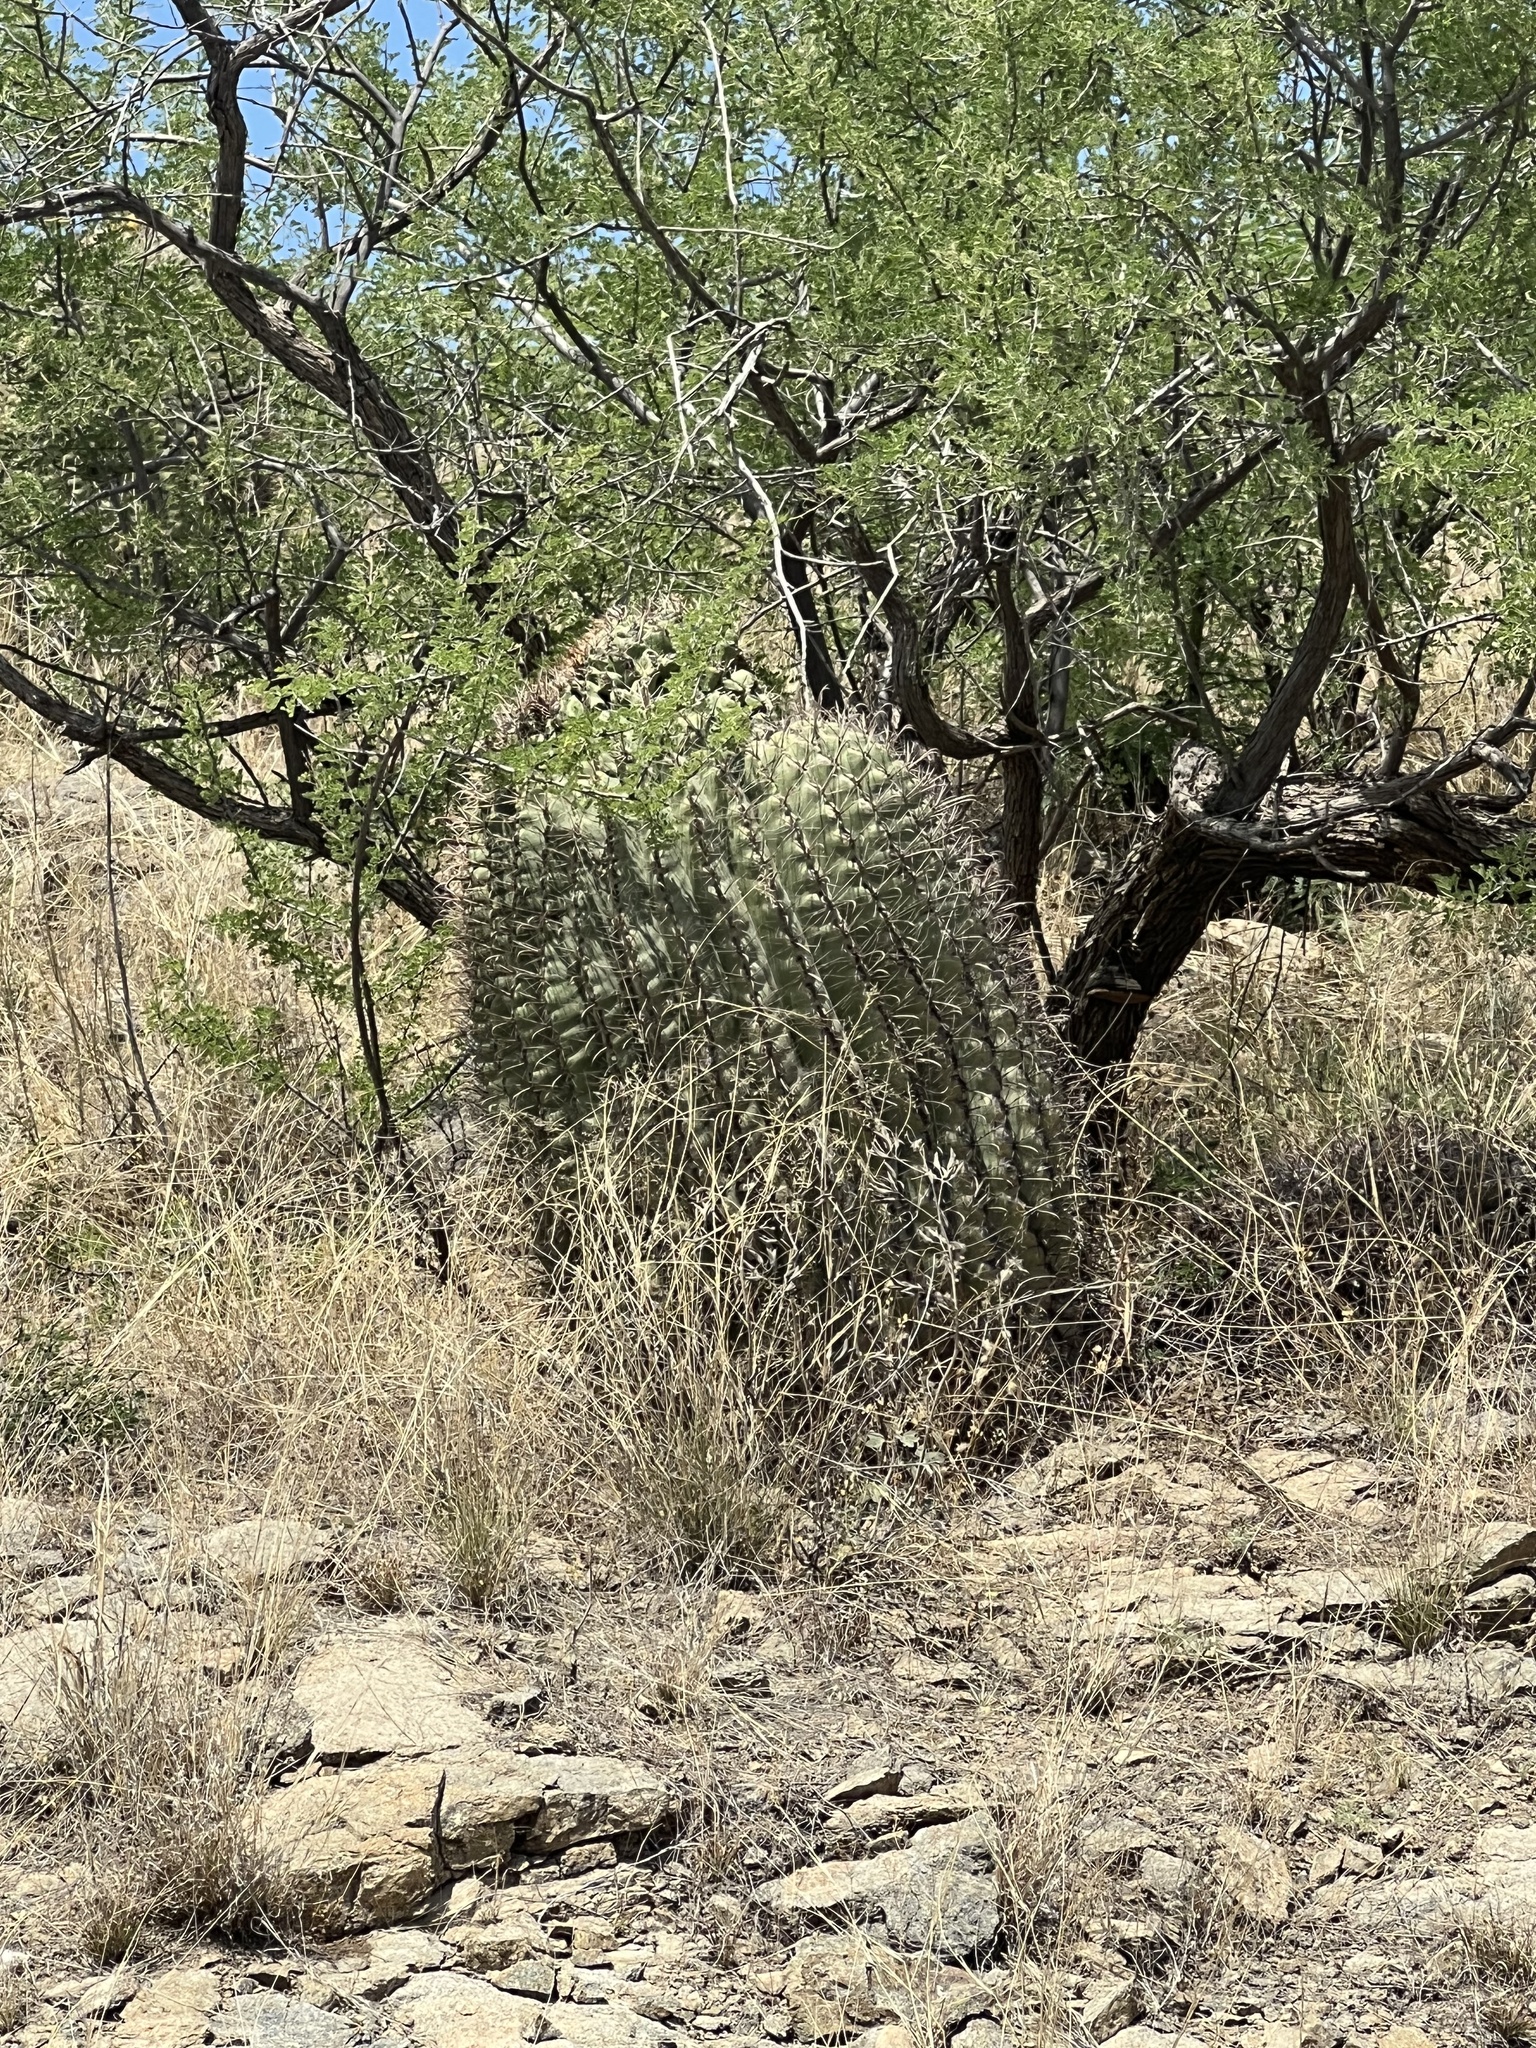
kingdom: Plantae
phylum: Tracheophyta
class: Magnoliopsida
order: Caryophyllales
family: Cactaceae
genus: Ferocactus
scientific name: Ferocactus wislizeni
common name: Candy barrel cactus
